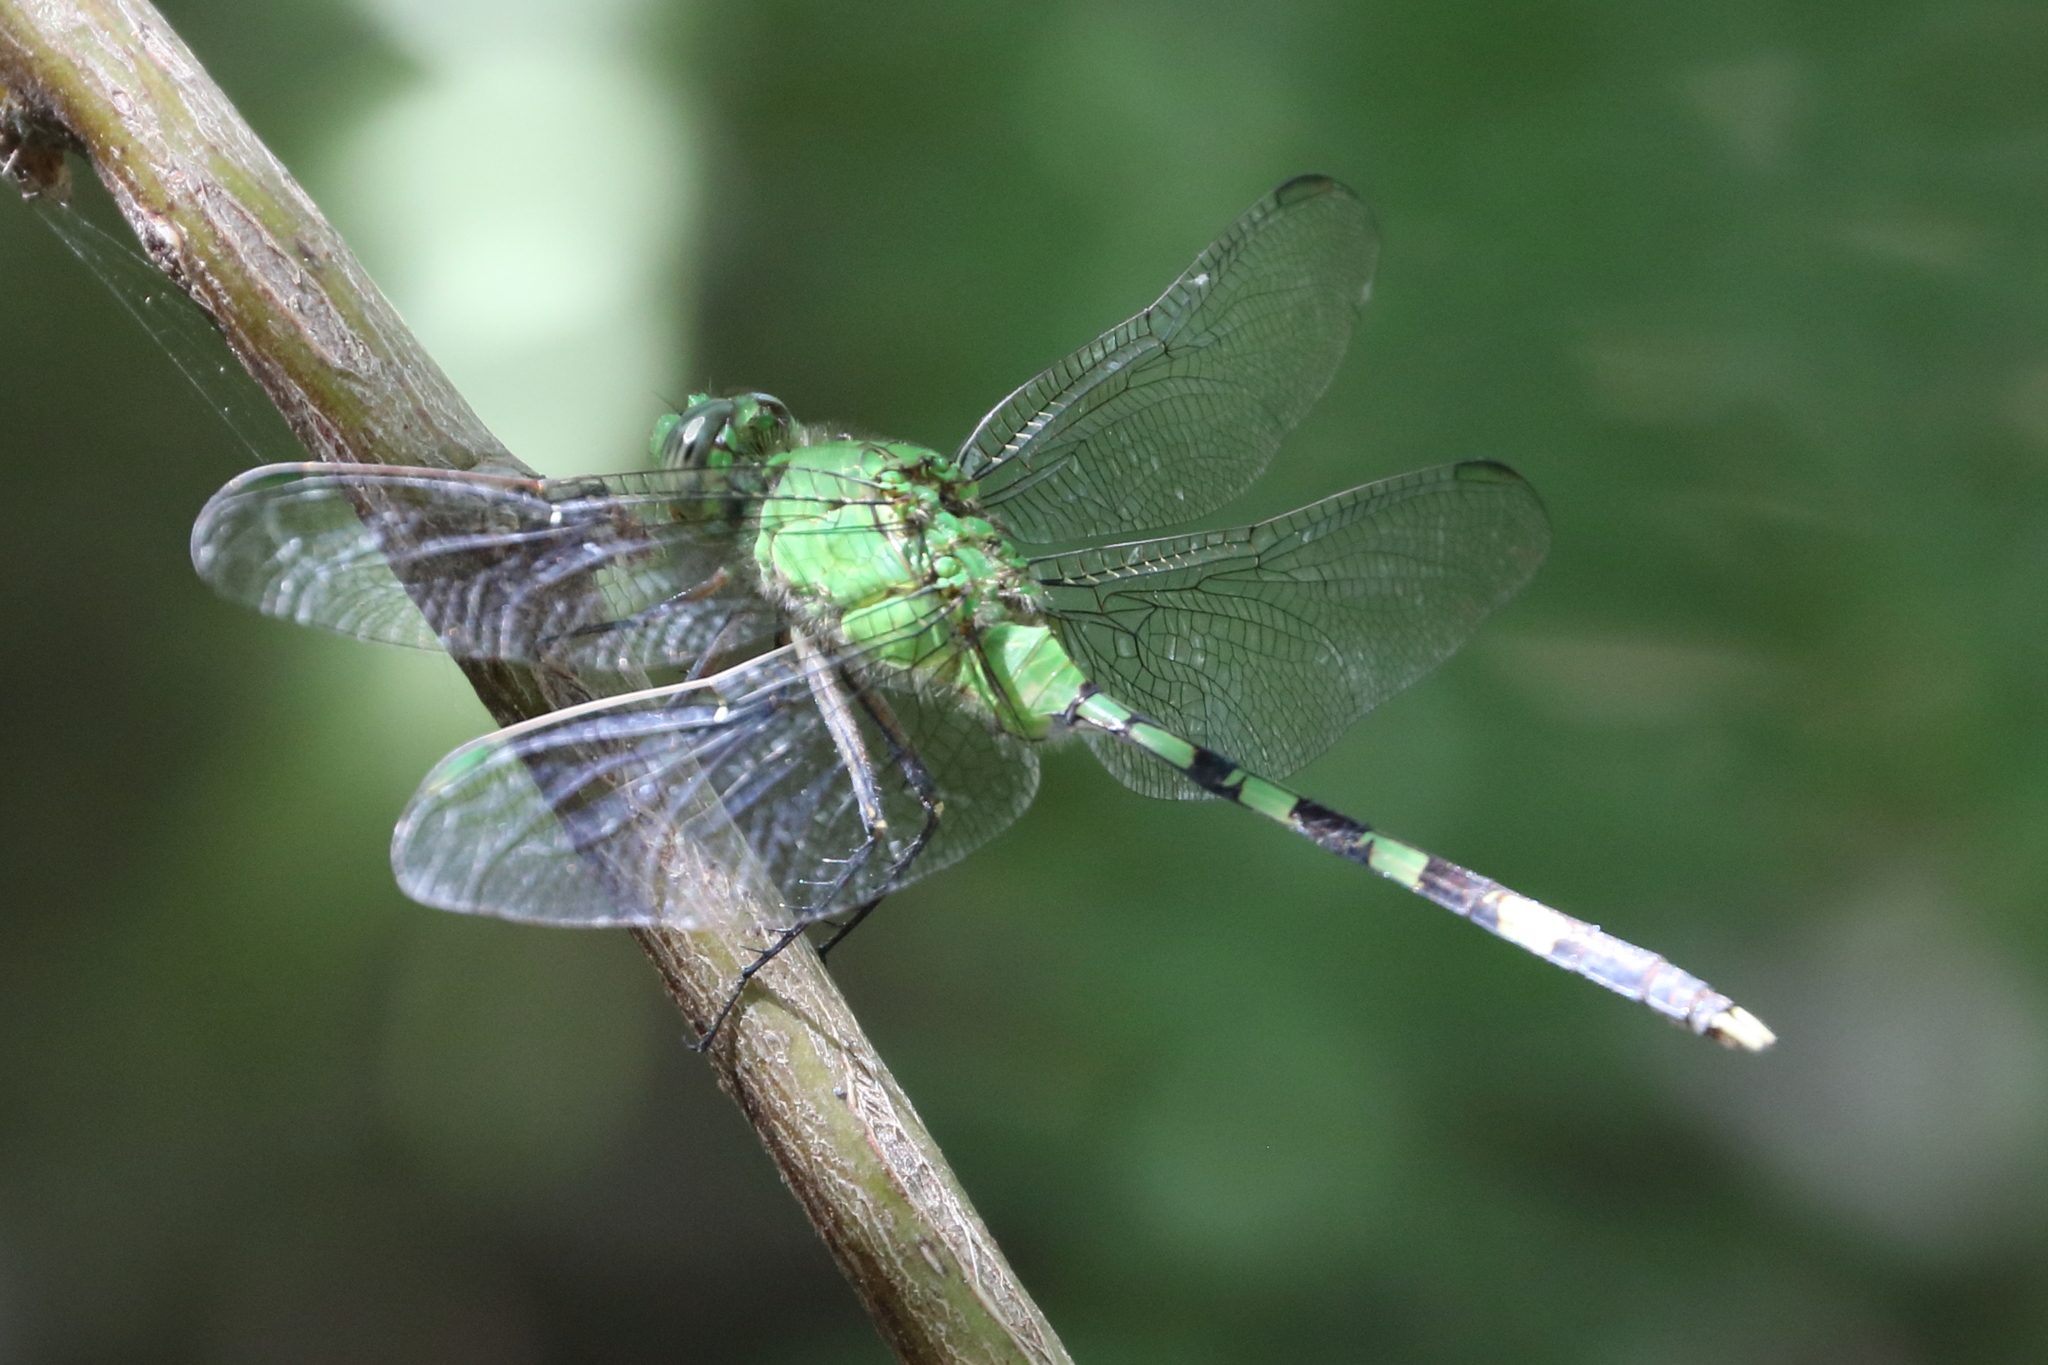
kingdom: Animalia
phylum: Arthropoda
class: Insecta
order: Odonata
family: Libellulidae
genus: Erythemis
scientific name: Erythemis vesiculosa
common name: Great pondhawk
